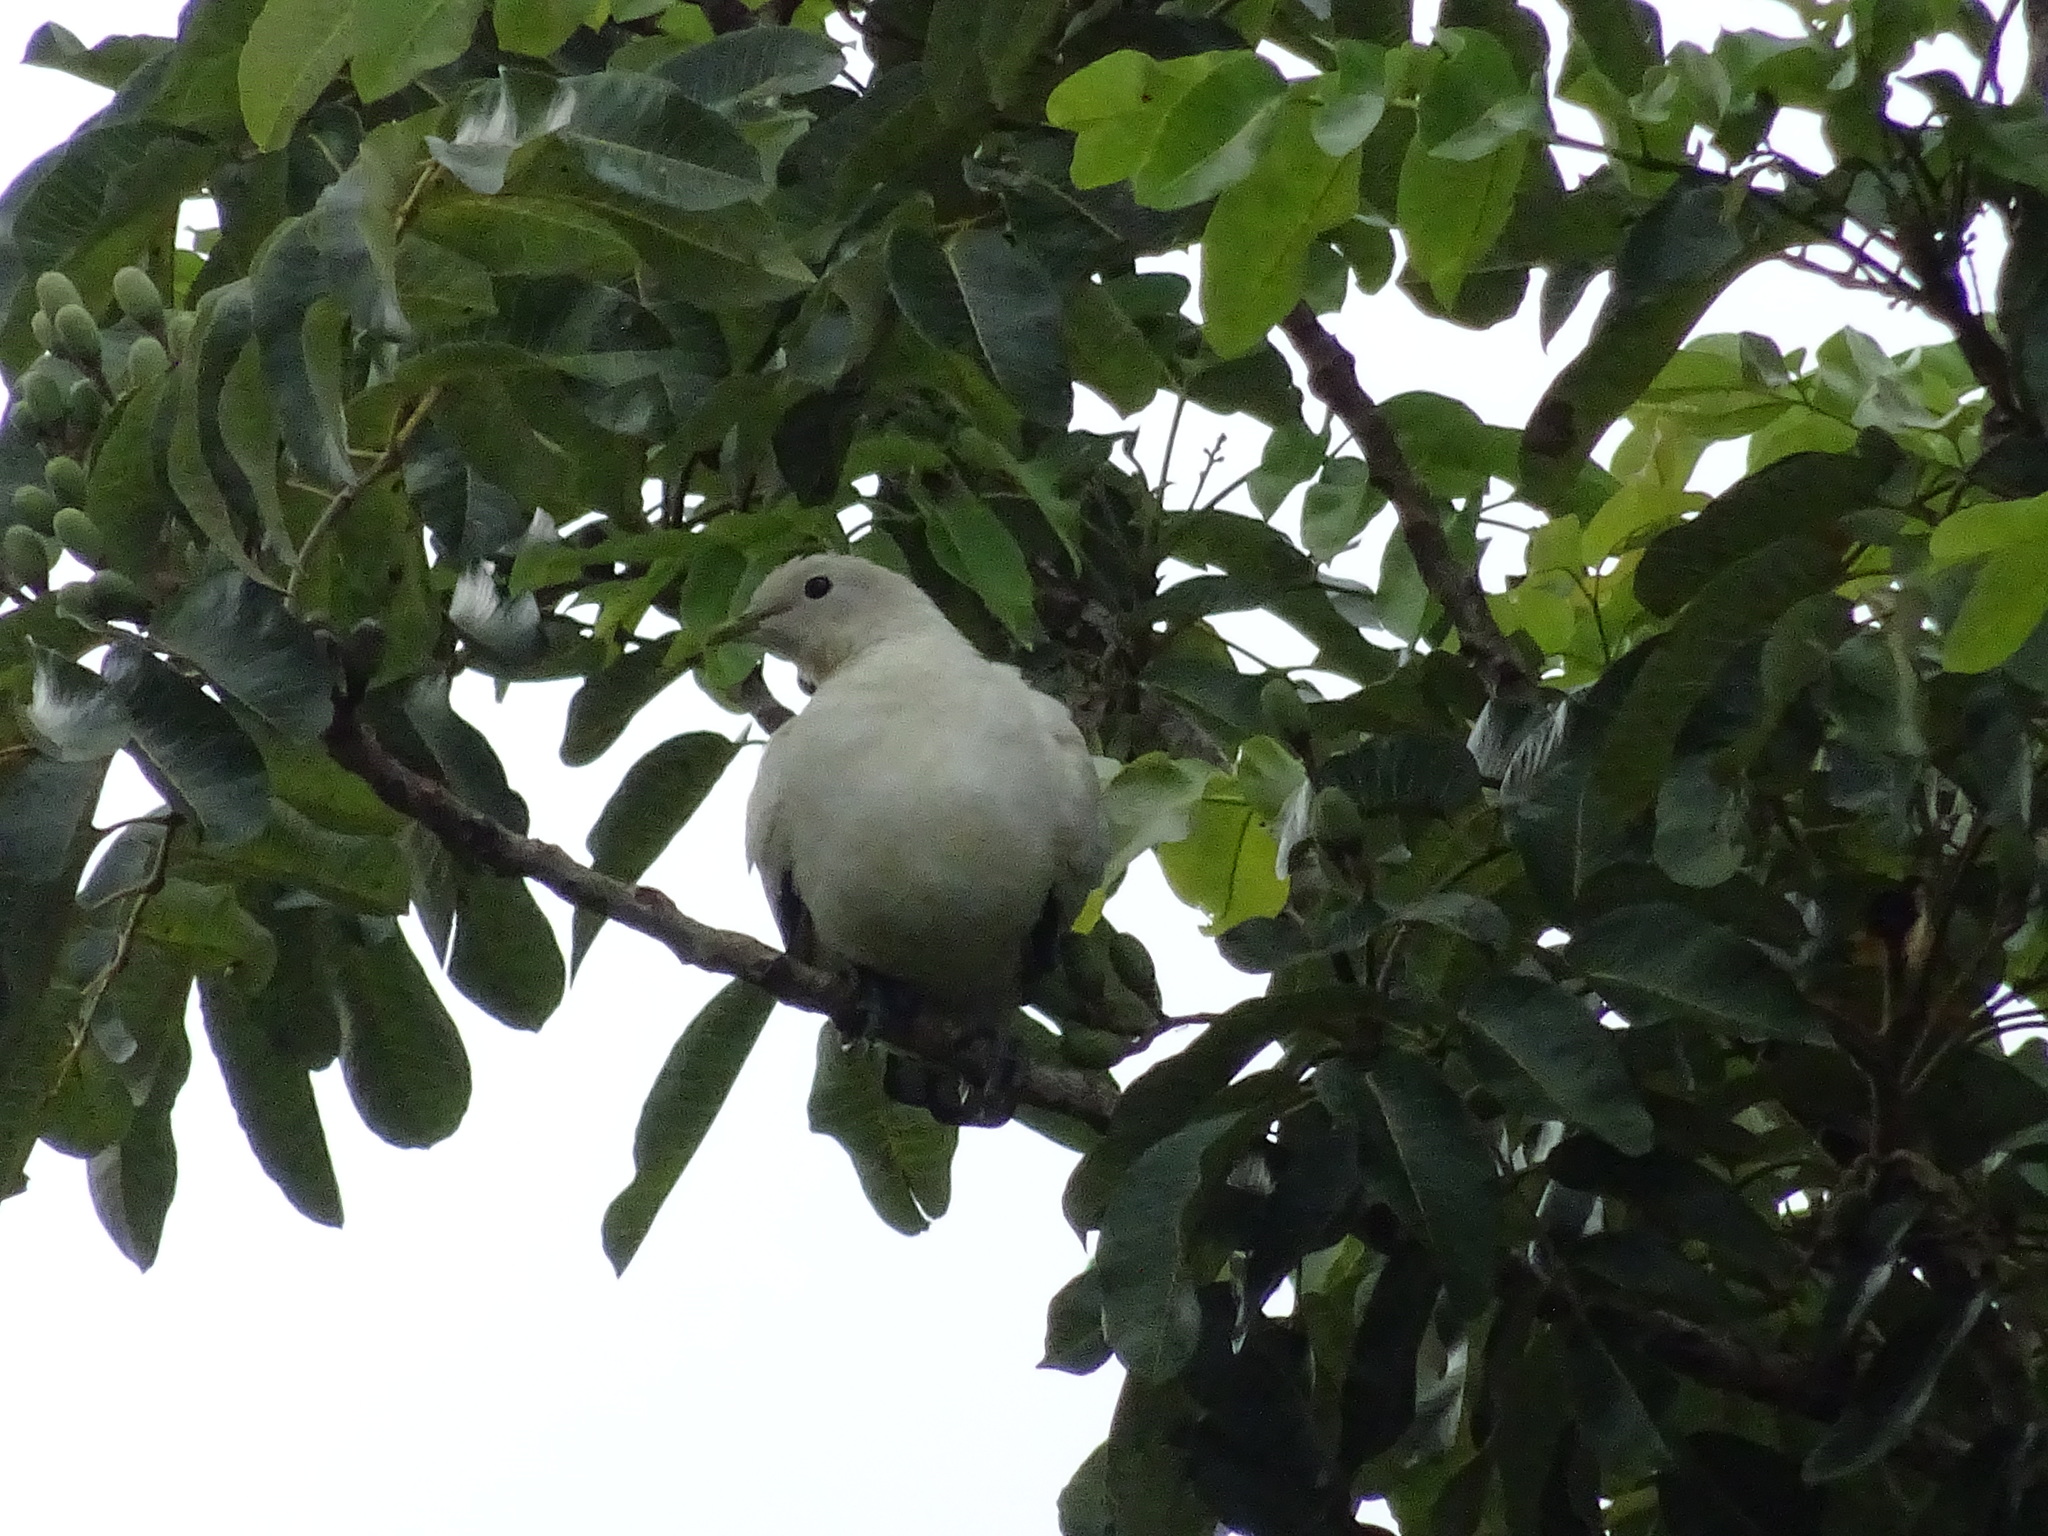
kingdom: Animalia
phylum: Chordata
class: Aves
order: Columbiformes
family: Columbidae
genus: Ducula
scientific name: Ducula spilorrhoa
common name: Torresian imperial pigeon
